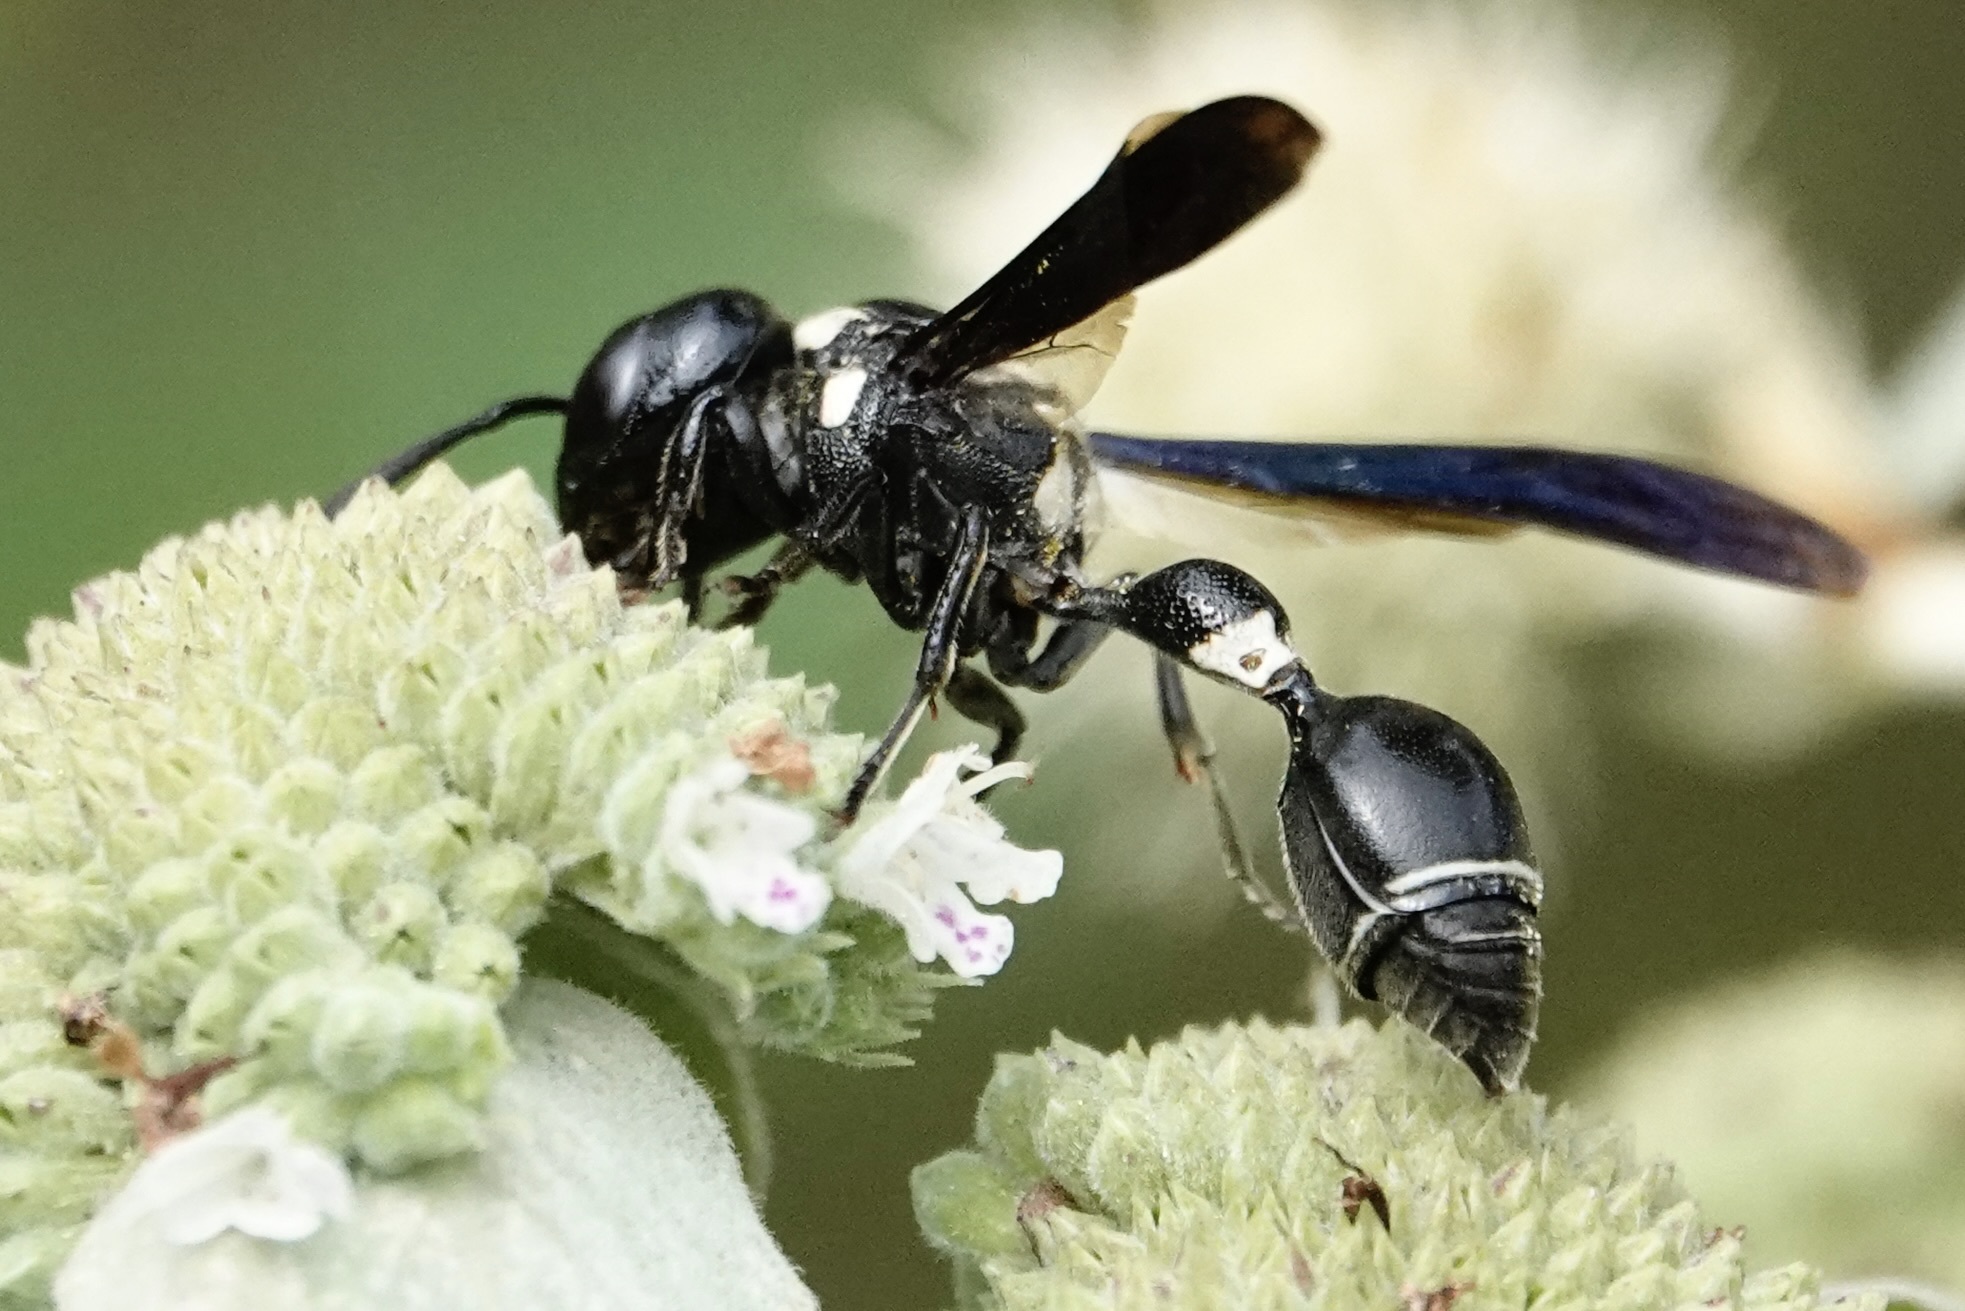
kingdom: Animalia
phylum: Arthropoda
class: Insecta
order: Hymenoptera
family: Eumenidae
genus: Zethus
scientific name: Zethus spinipes
